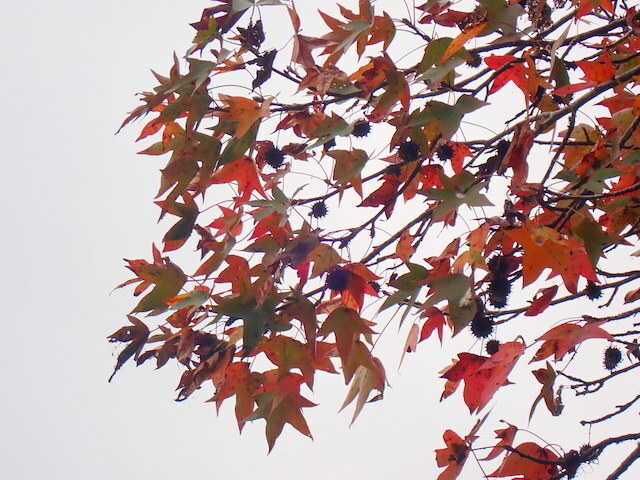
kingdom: Plantae
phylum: Tracheophyta
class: Magnoliopsida
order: Saxifragales
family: Altingiaceae
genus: Liquidambar
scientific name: Liquidambar styraciflua
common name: Sweet gum
